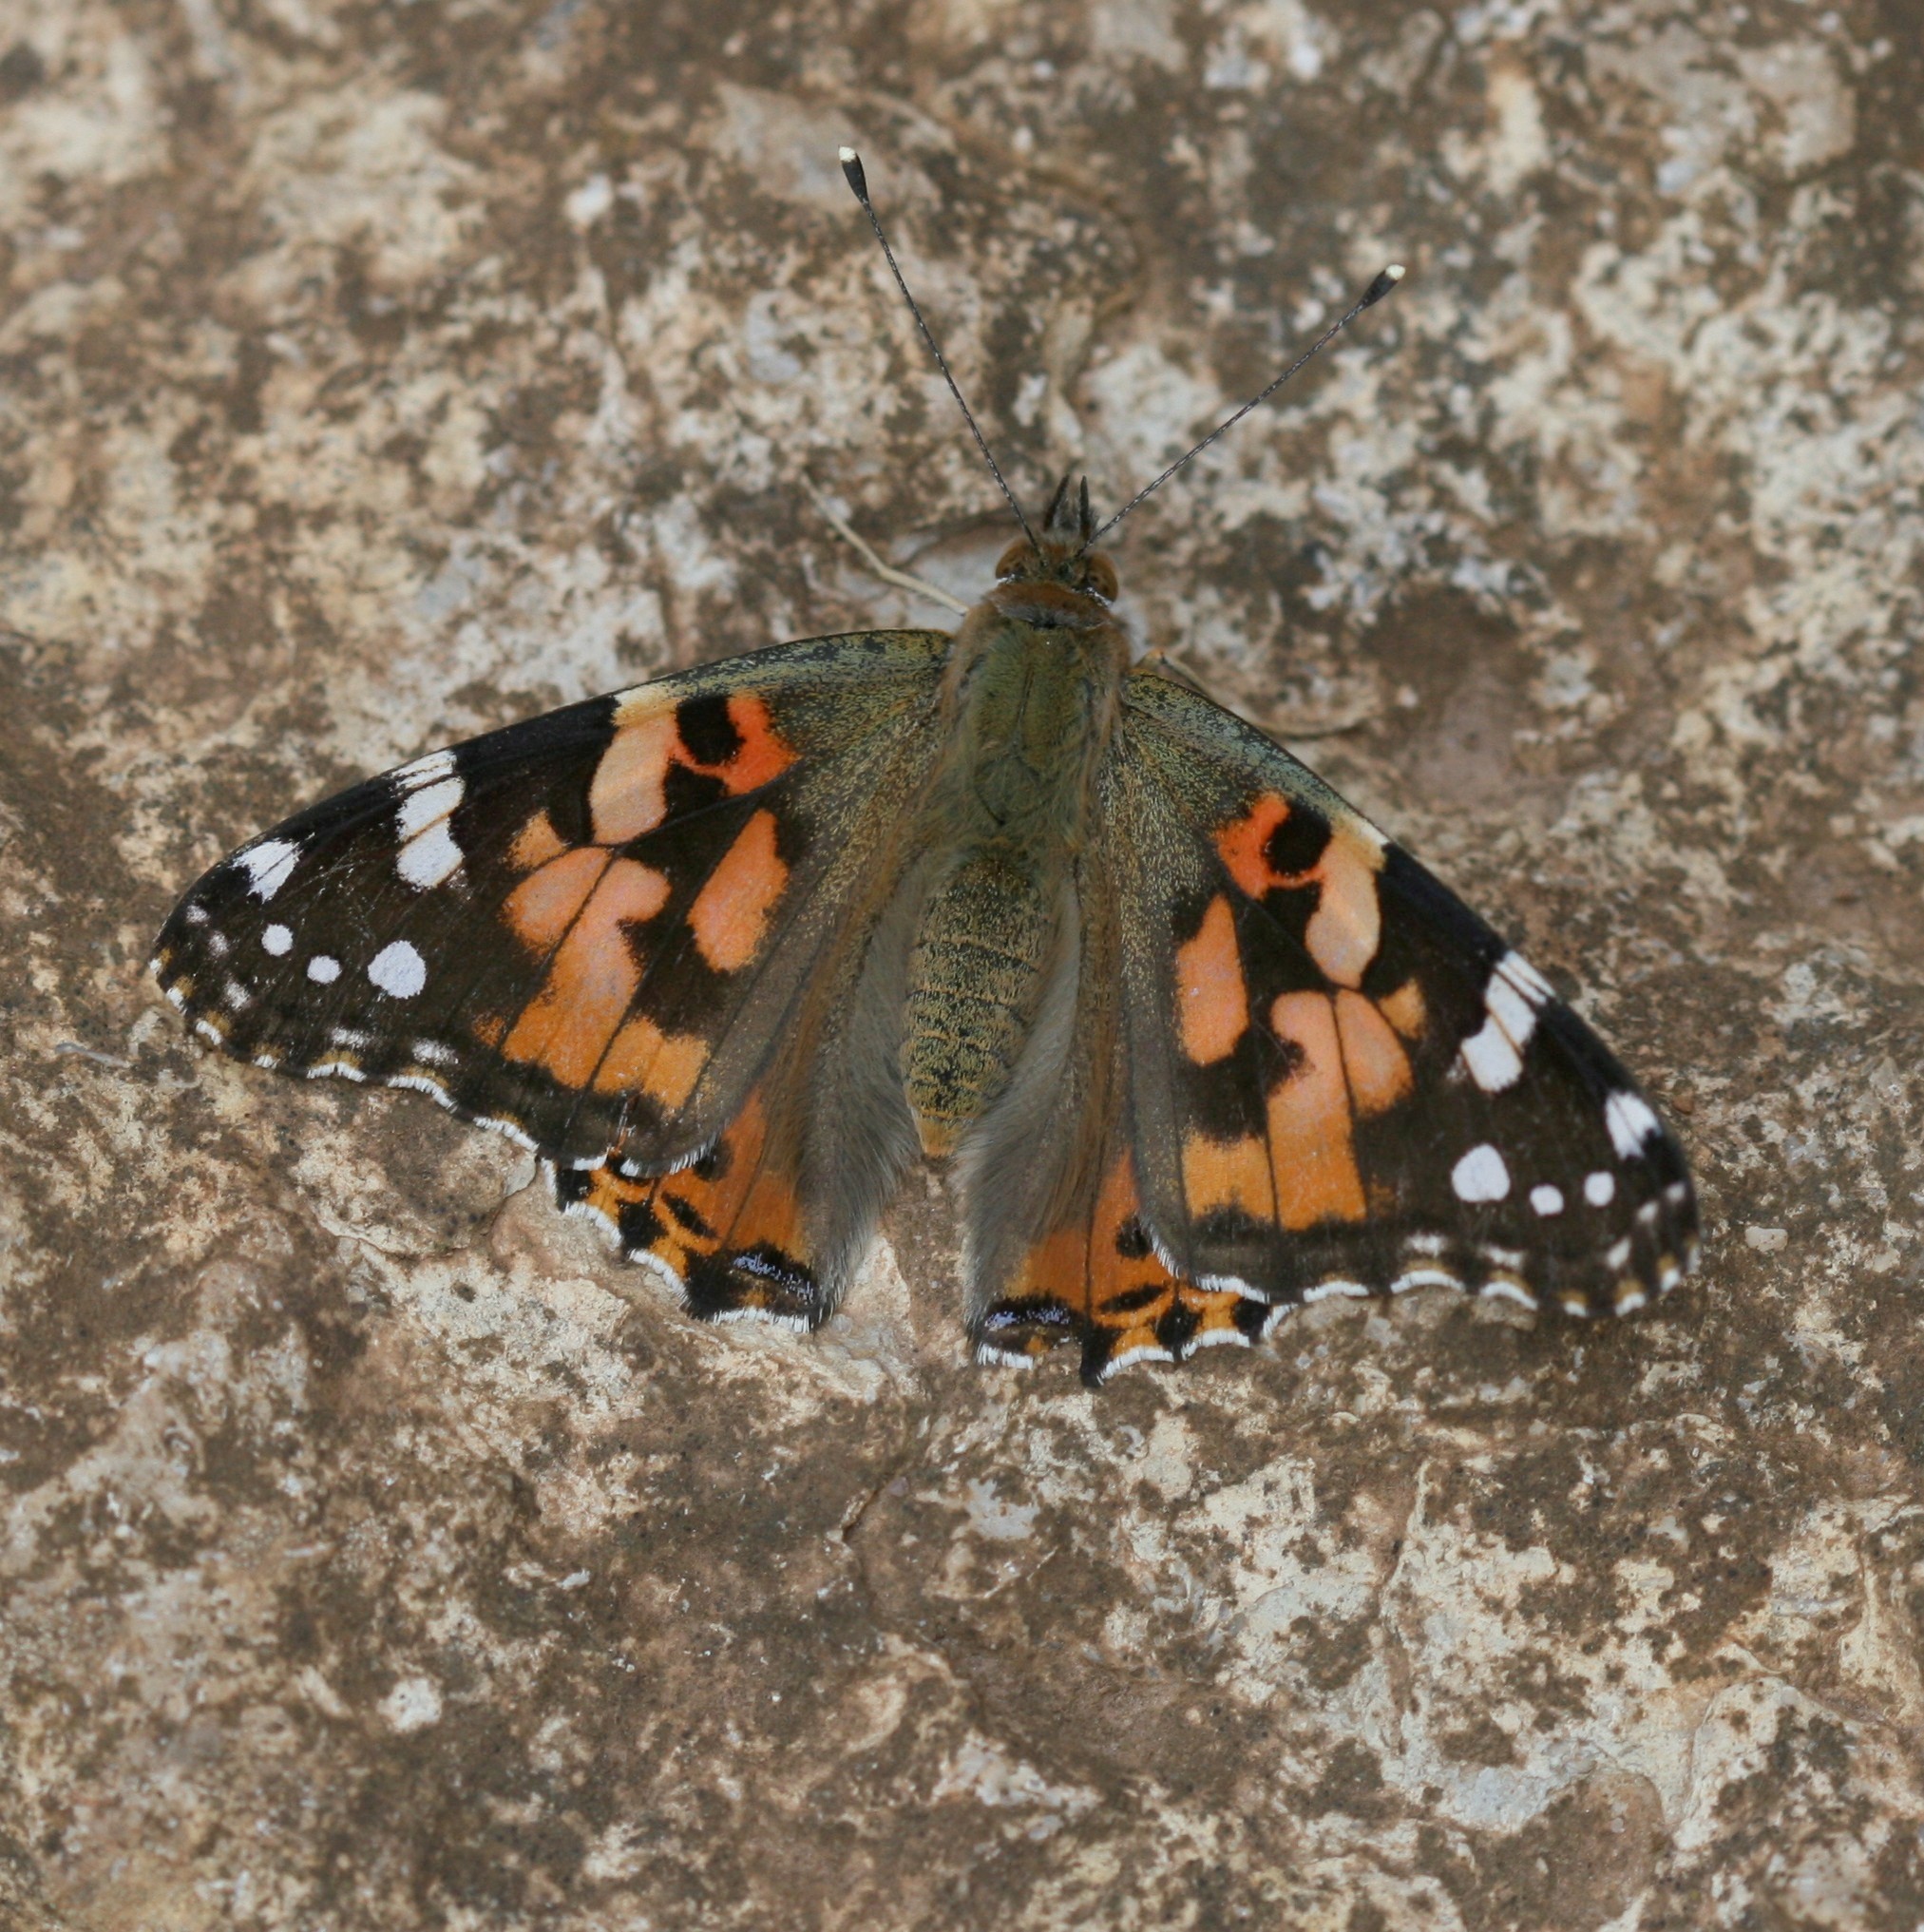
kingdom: Animalia
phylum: Arthropoda
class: Insecta
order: Lepidoptera
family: Nymphalidae
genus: Vanessa
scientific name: Vanessa cardui
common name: Painted lady
